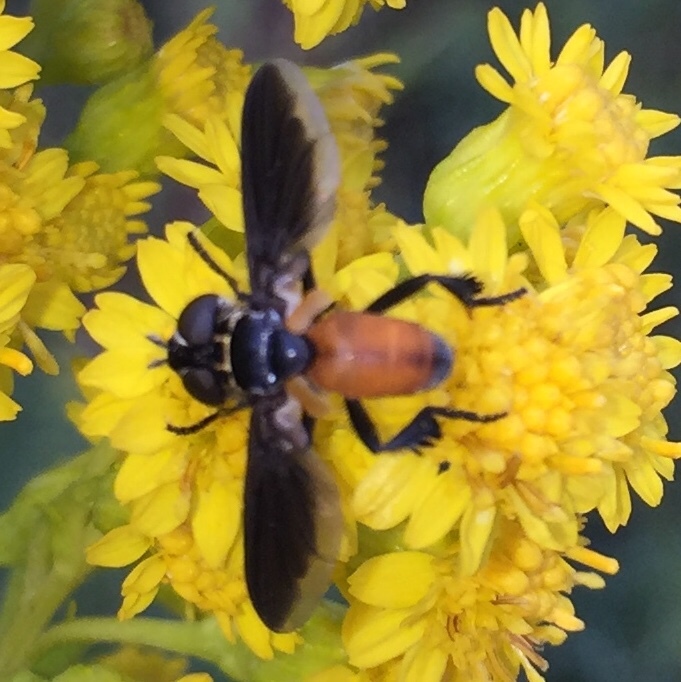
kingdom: Animalia
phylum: Arthropoda
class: Insecta
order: Diptera
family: Tachinidae
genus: Trichopoda
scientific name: Trichopoda pennipes
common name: Tachinid fly
